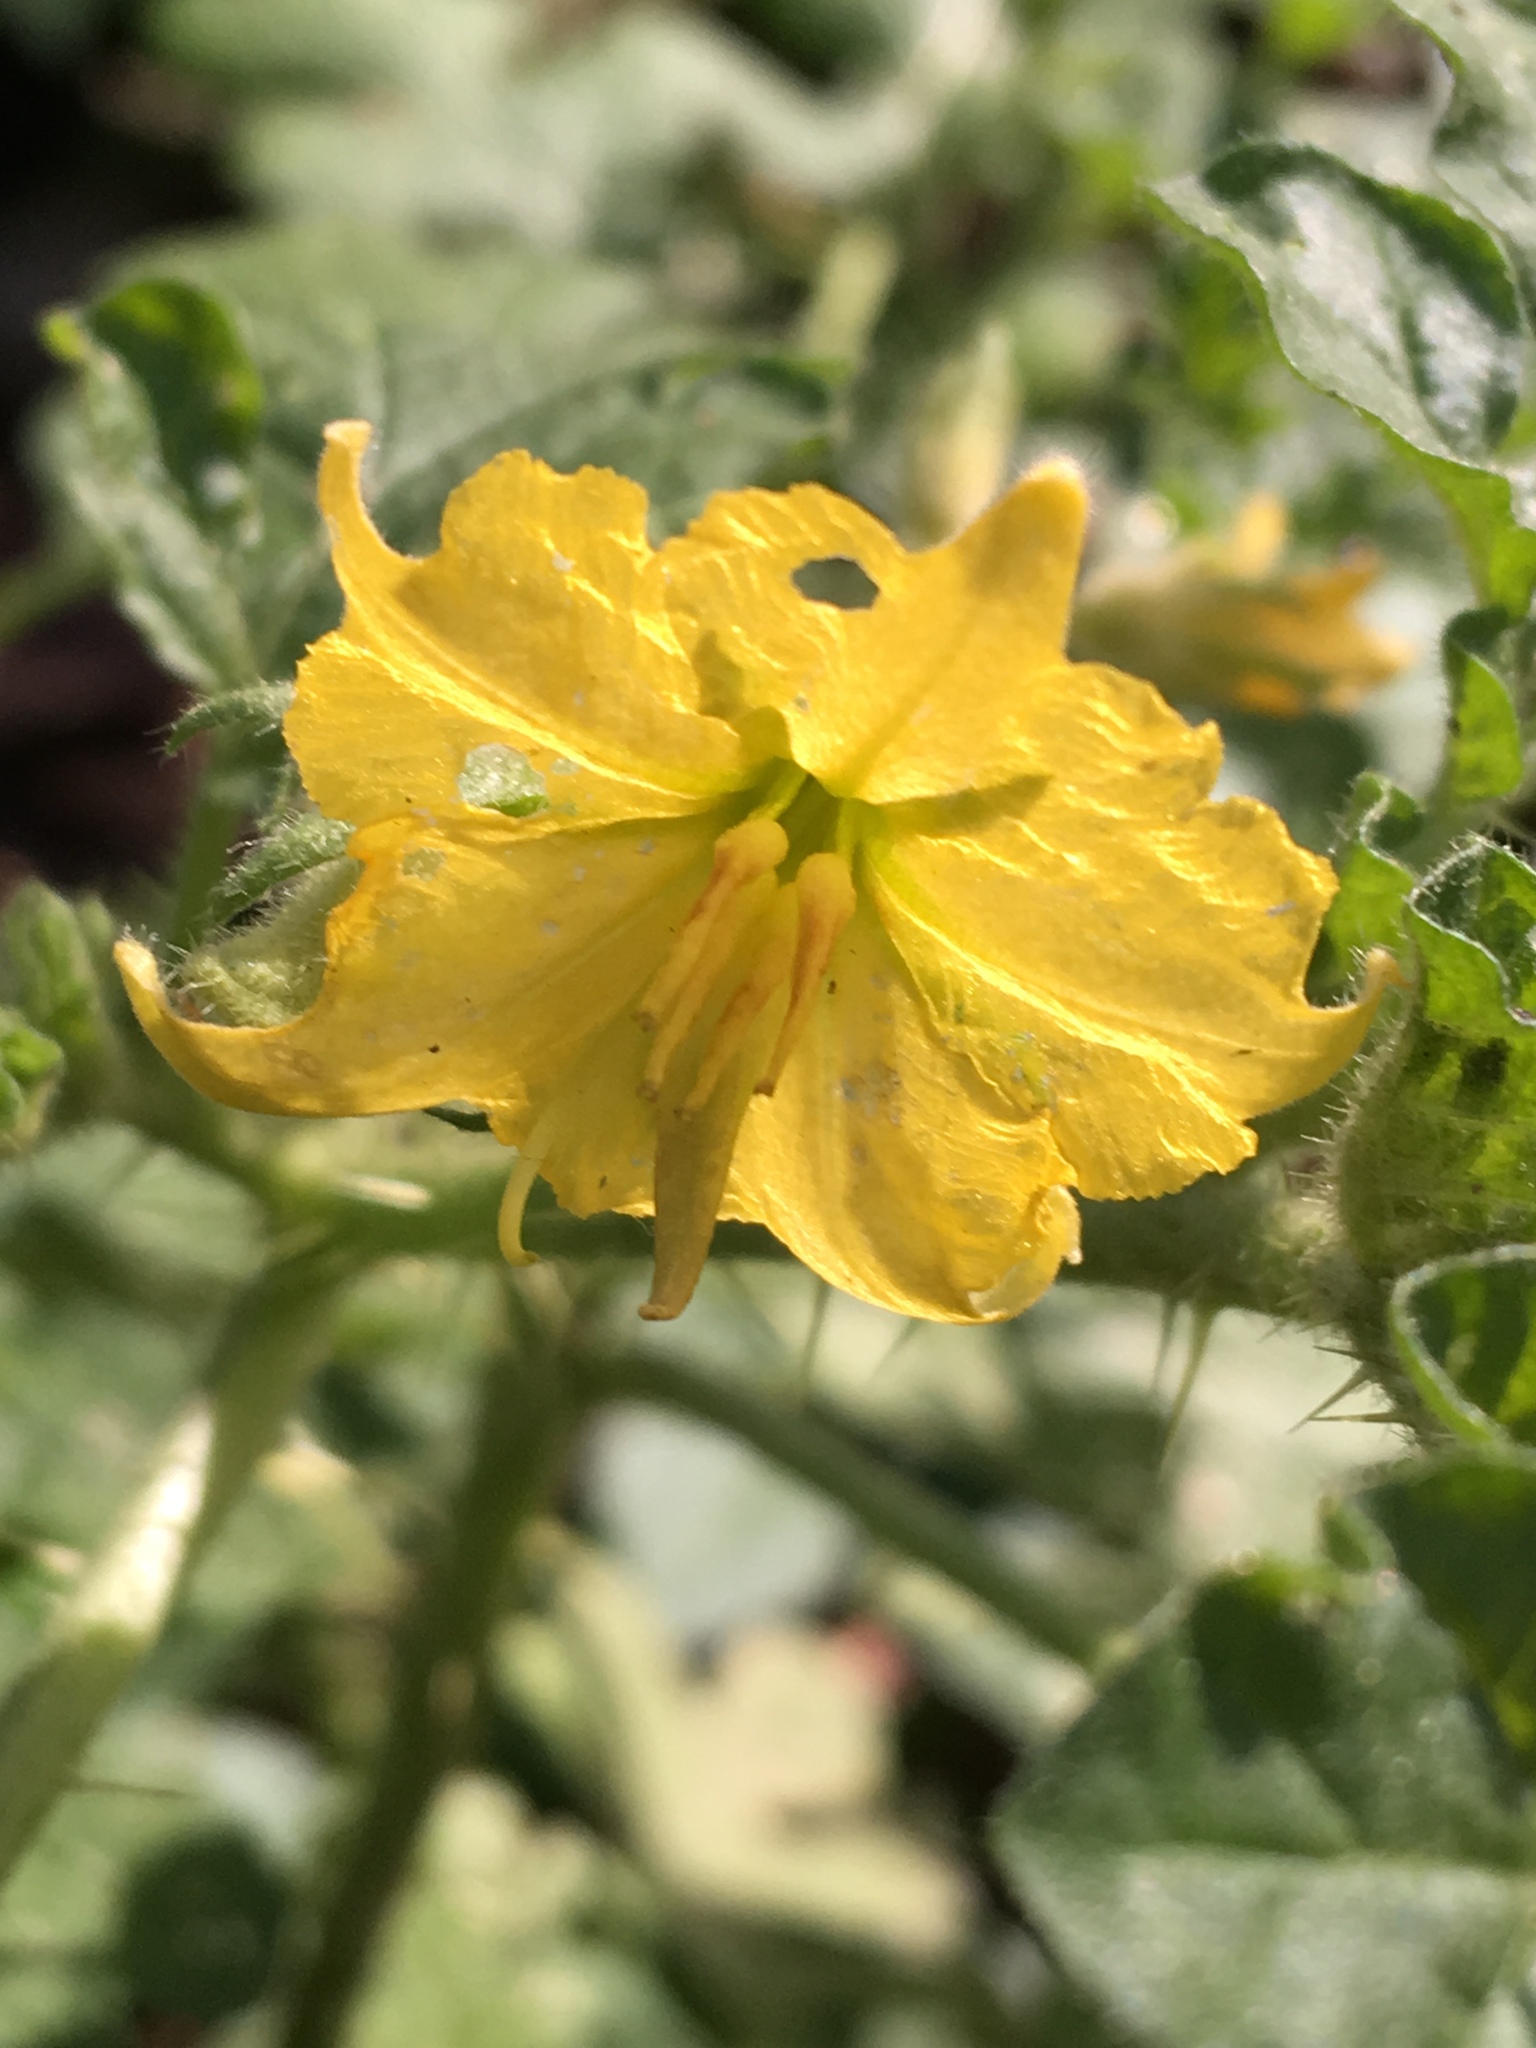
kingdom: Plantae
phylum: Tracheophyta
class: Magnoliopsida
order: Solanales
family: Solanaceae
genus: Solanum
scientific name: Solanum angustifolium
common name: Buffalobur nightshade
